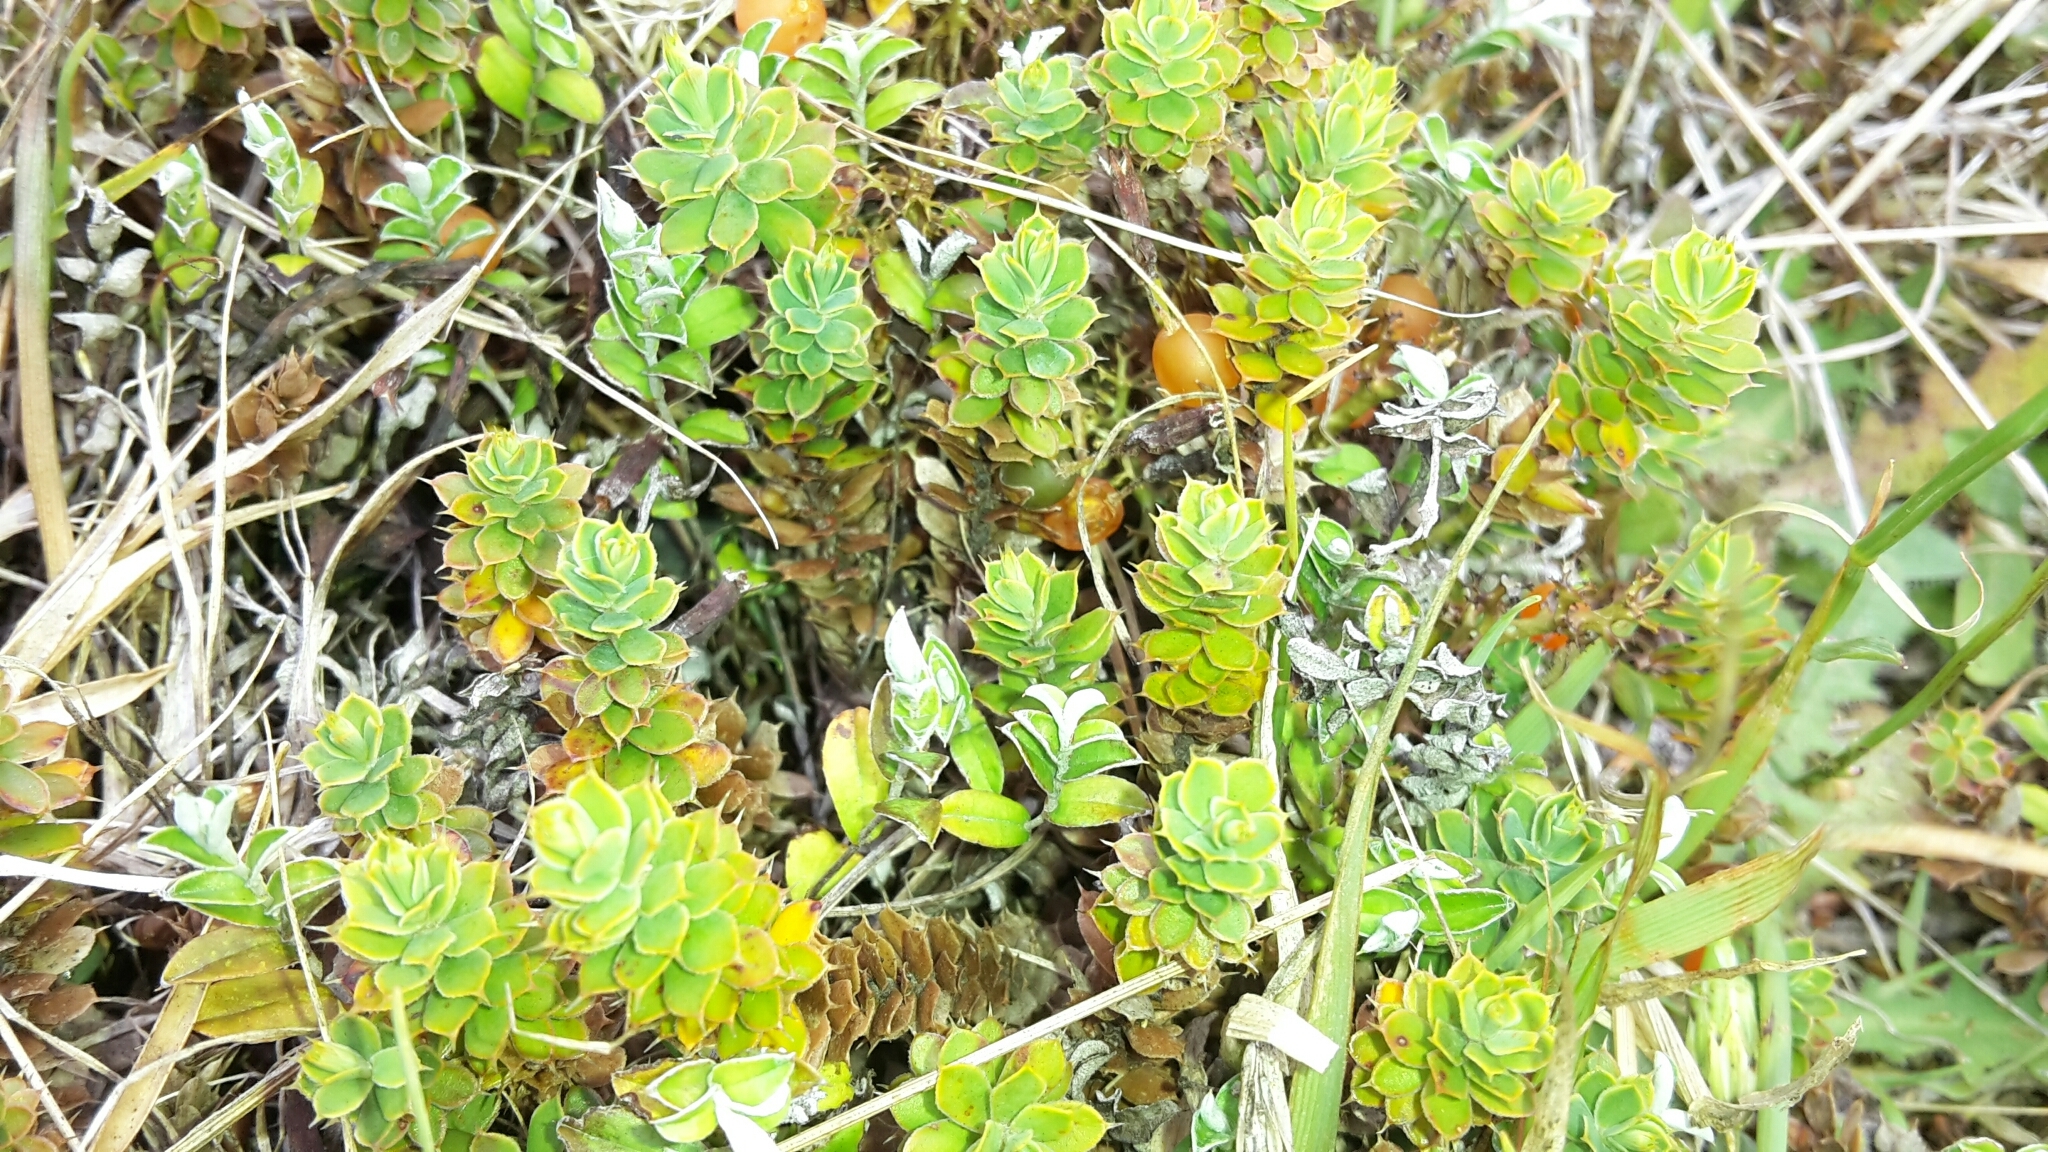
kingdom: Plantae
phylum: Tracheophyta
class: Magnoliopsida
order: Ericales
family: Ericaceae
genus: Styphelia
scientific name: Styphelia nesophila
